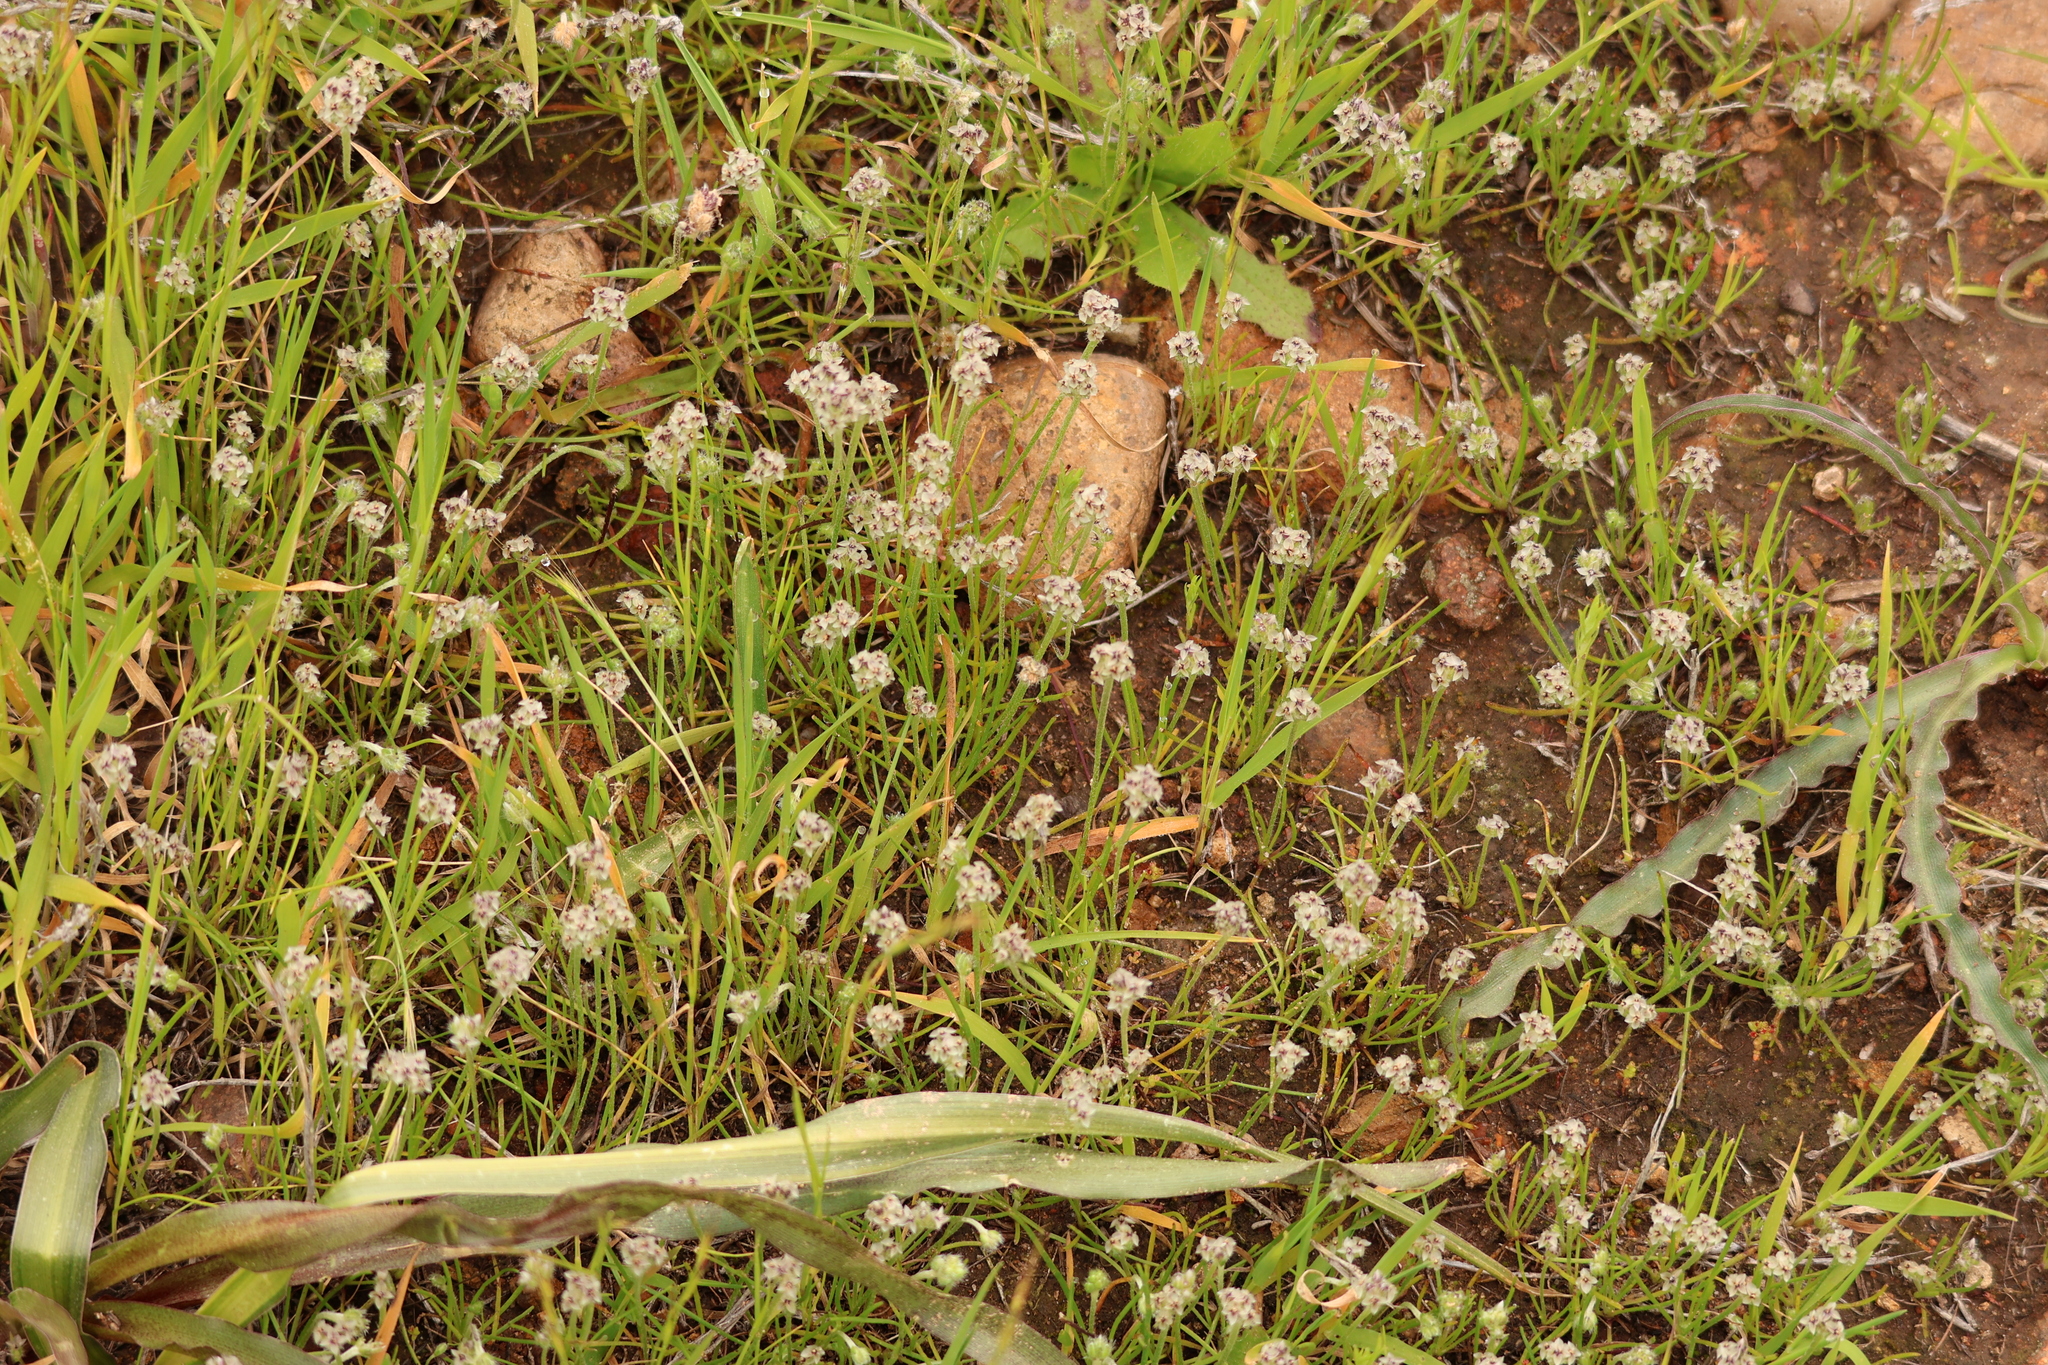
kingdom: Plantae
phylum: Tracheophyta
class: Magnoliopsida
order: Lamiales
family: Plantaginaceae
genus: Plantago
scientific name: Plantago erecta
